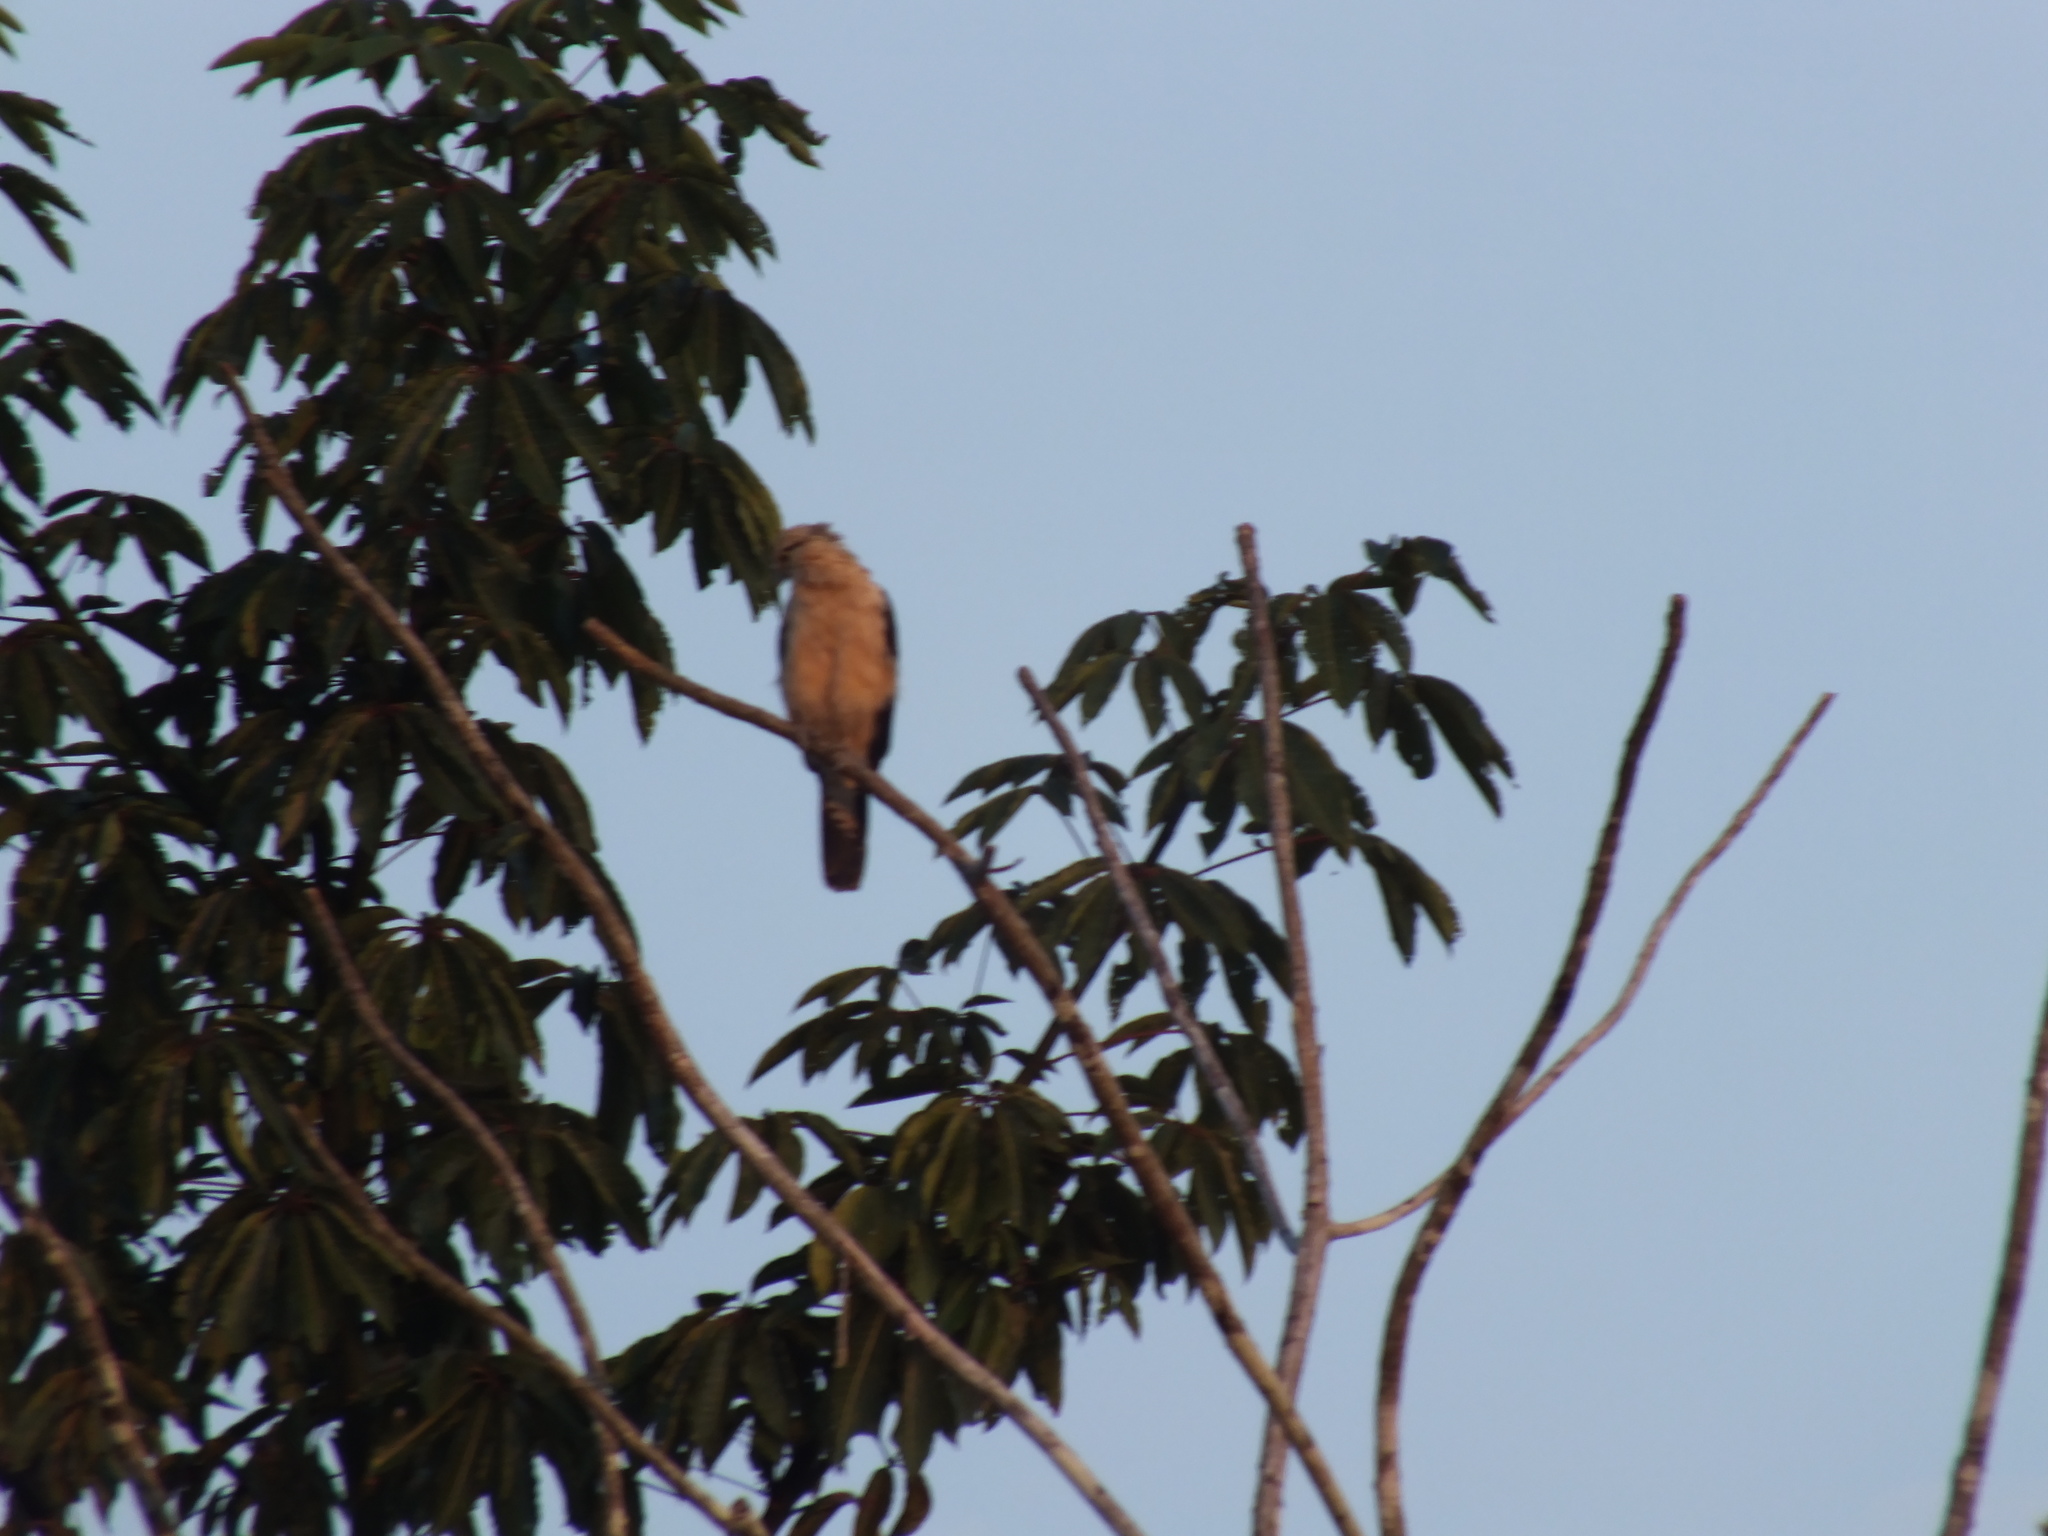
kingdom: Animalia
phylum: Chordata
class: Aves
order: Falconiformes
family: Falconidae
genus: Daptrius
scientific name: Daptrius
